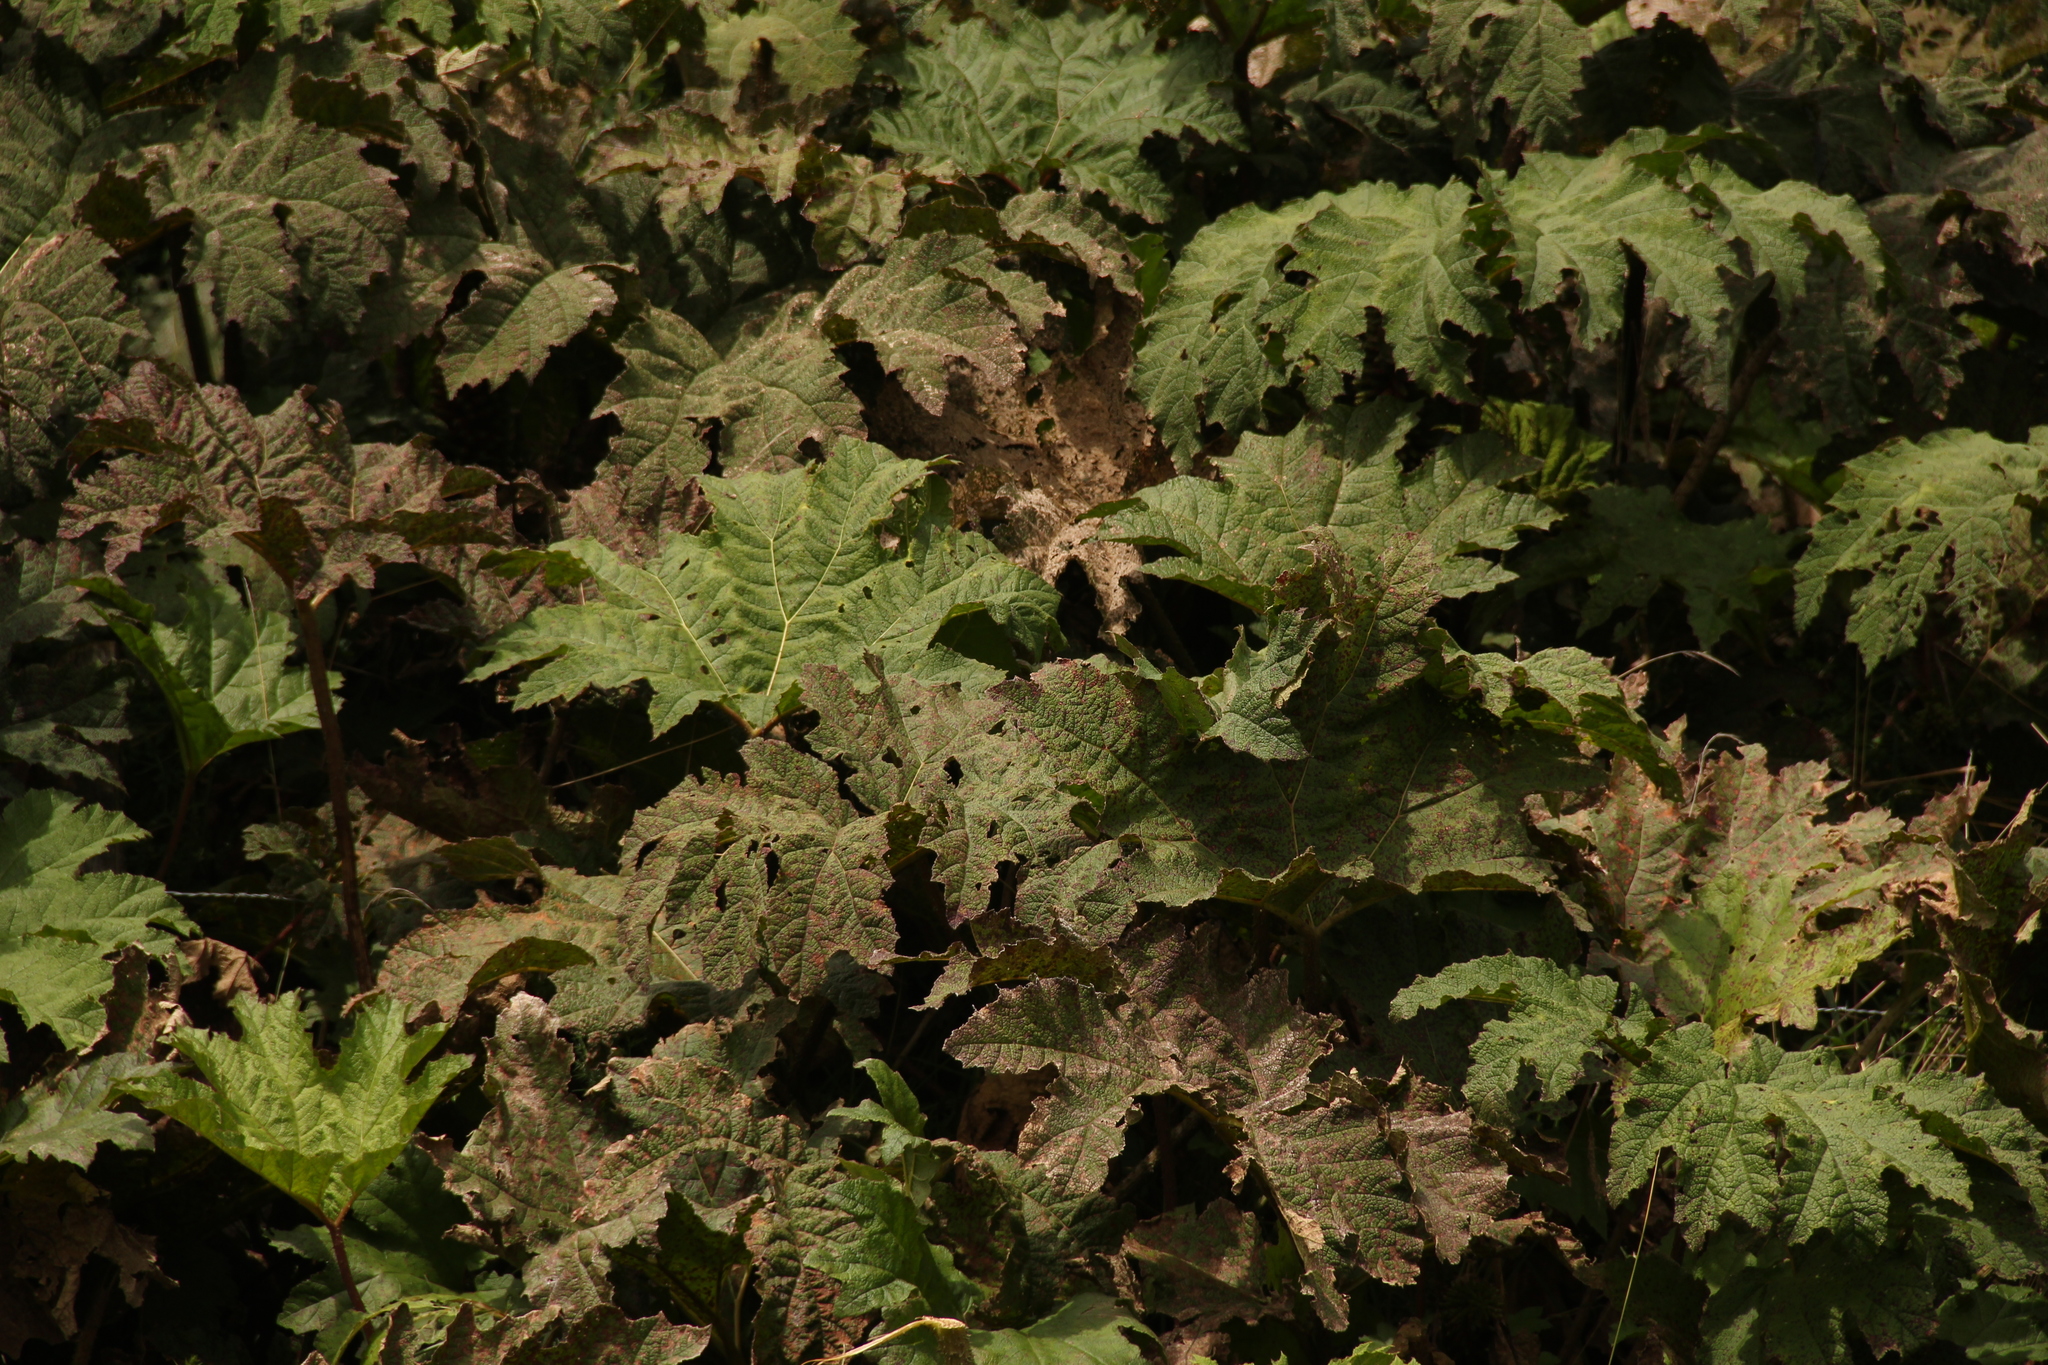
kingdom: Plantae
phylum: Tracheophyta
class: Magnoliopsida
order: Gunnerales
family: Gunneraceae
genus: Gunnera
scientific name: Gunnera tinctoria
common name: Giant-rhubarb
